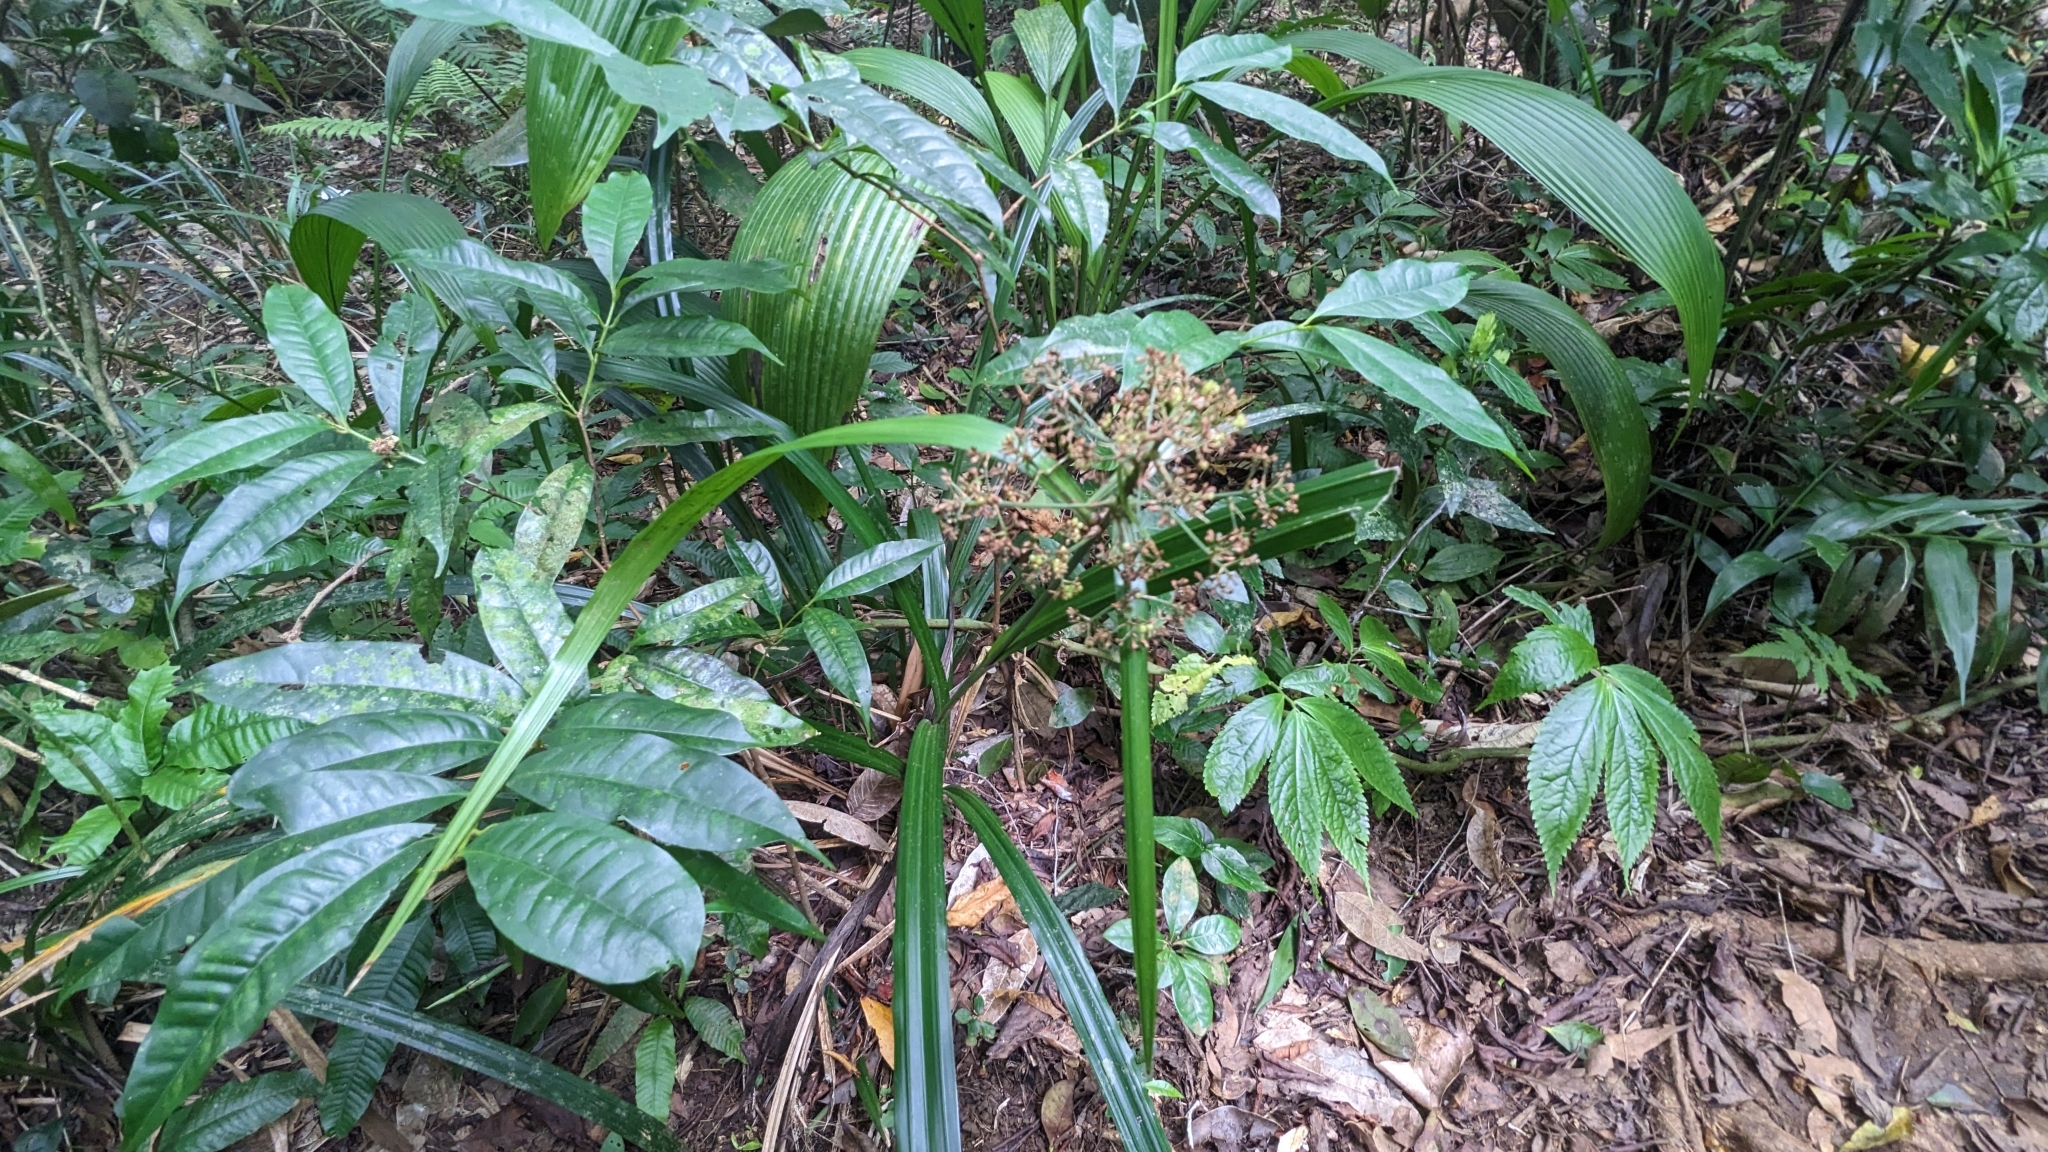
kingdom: Plantae
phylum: Tracheophyta
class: Liliopsida
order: Poales
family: Cyperaceae
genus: Hypolytrum
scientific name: Hypolytrum nemorum
